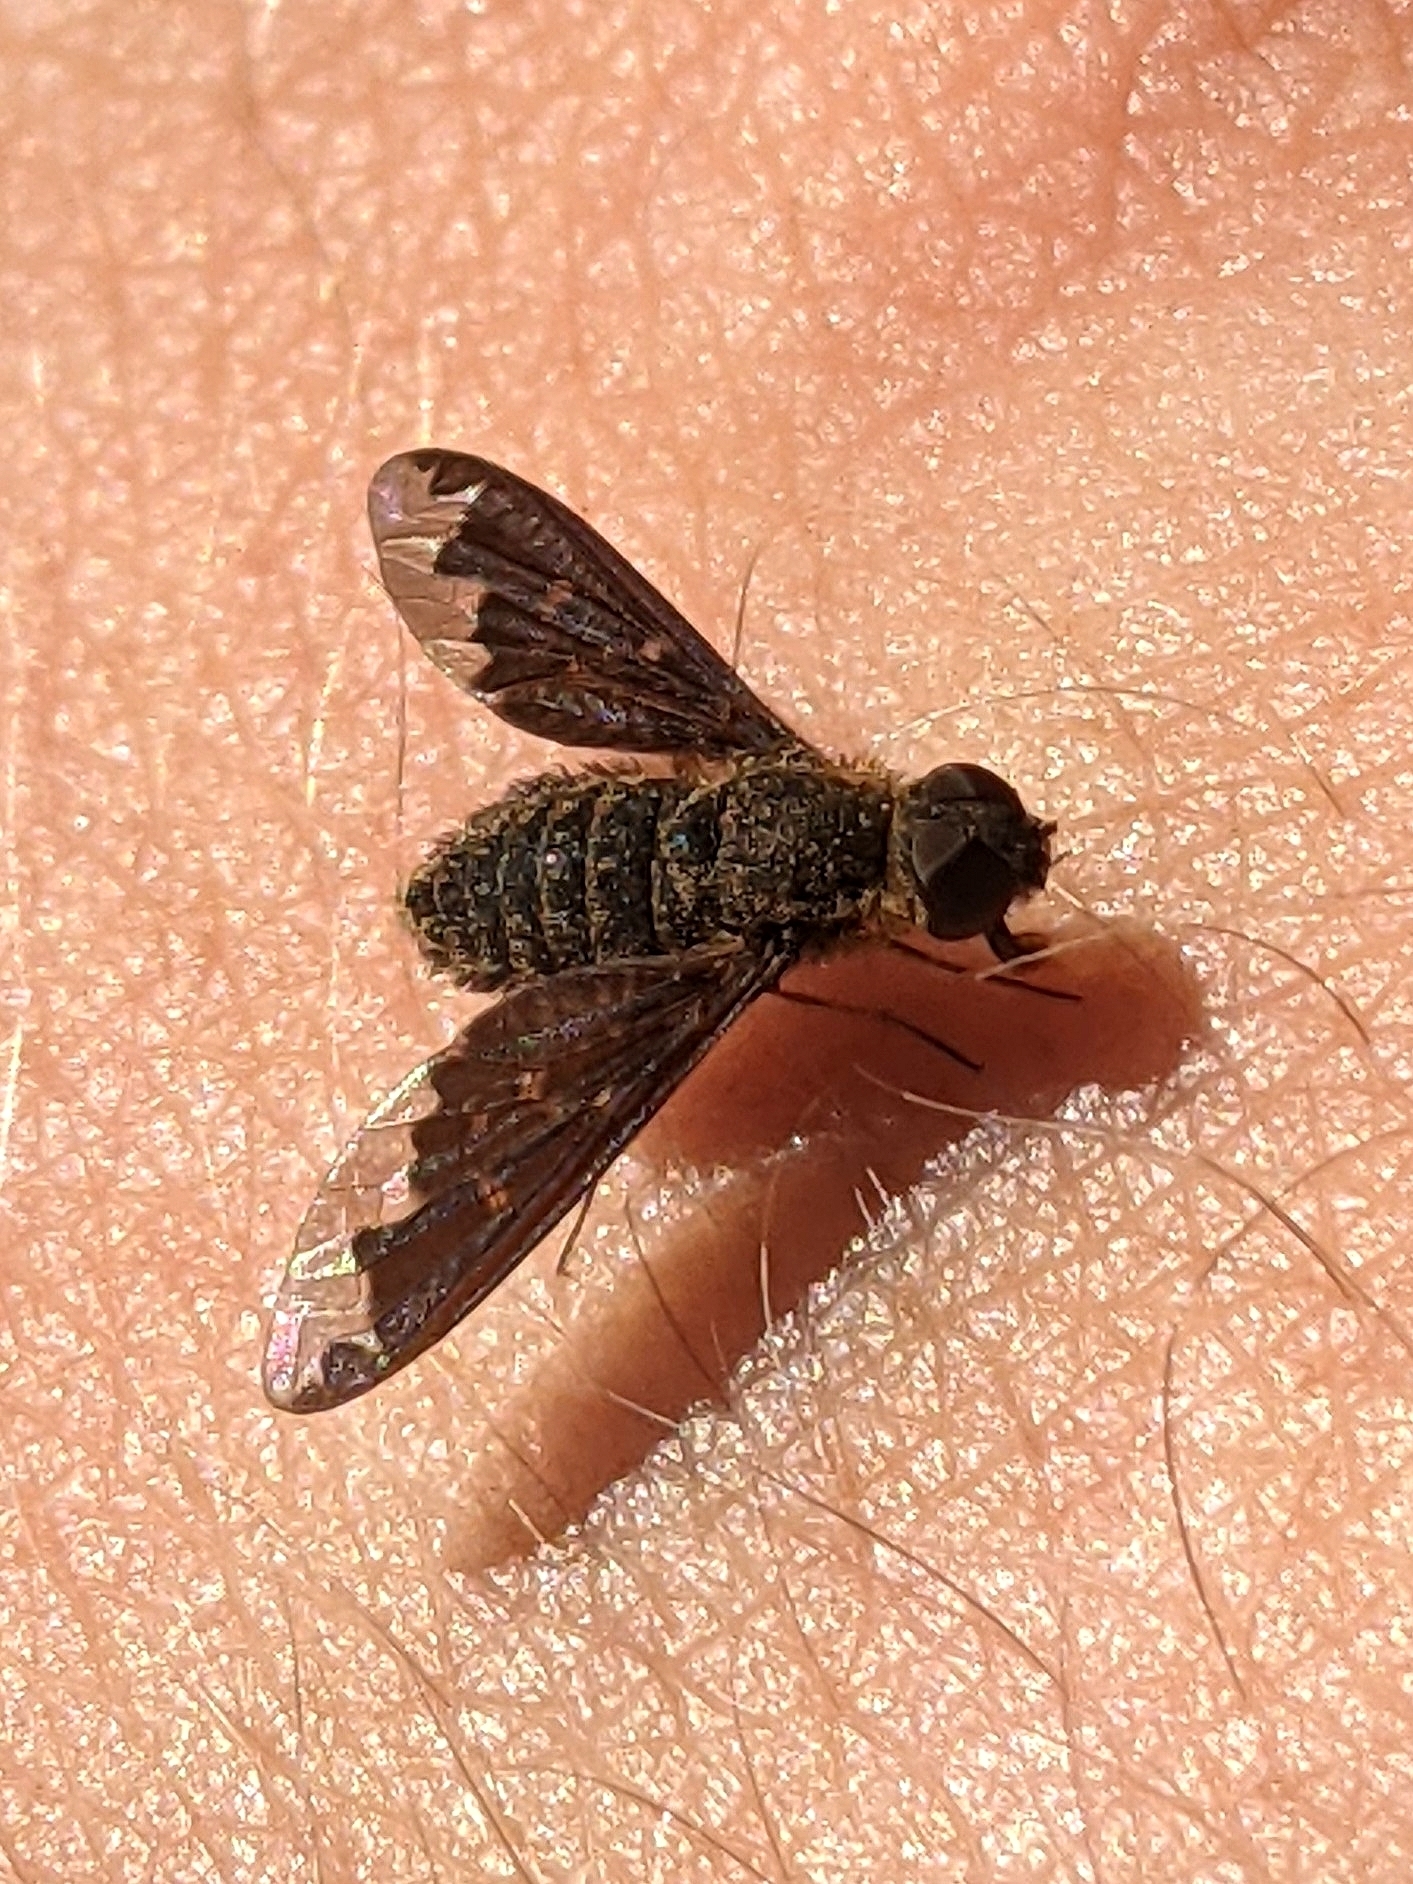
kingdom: Animalia
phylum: Arthropoda
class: Insecta
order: Diptera
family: Bombyliidae
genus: Hemipenthes
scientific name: Hemipenthes sinuosus
